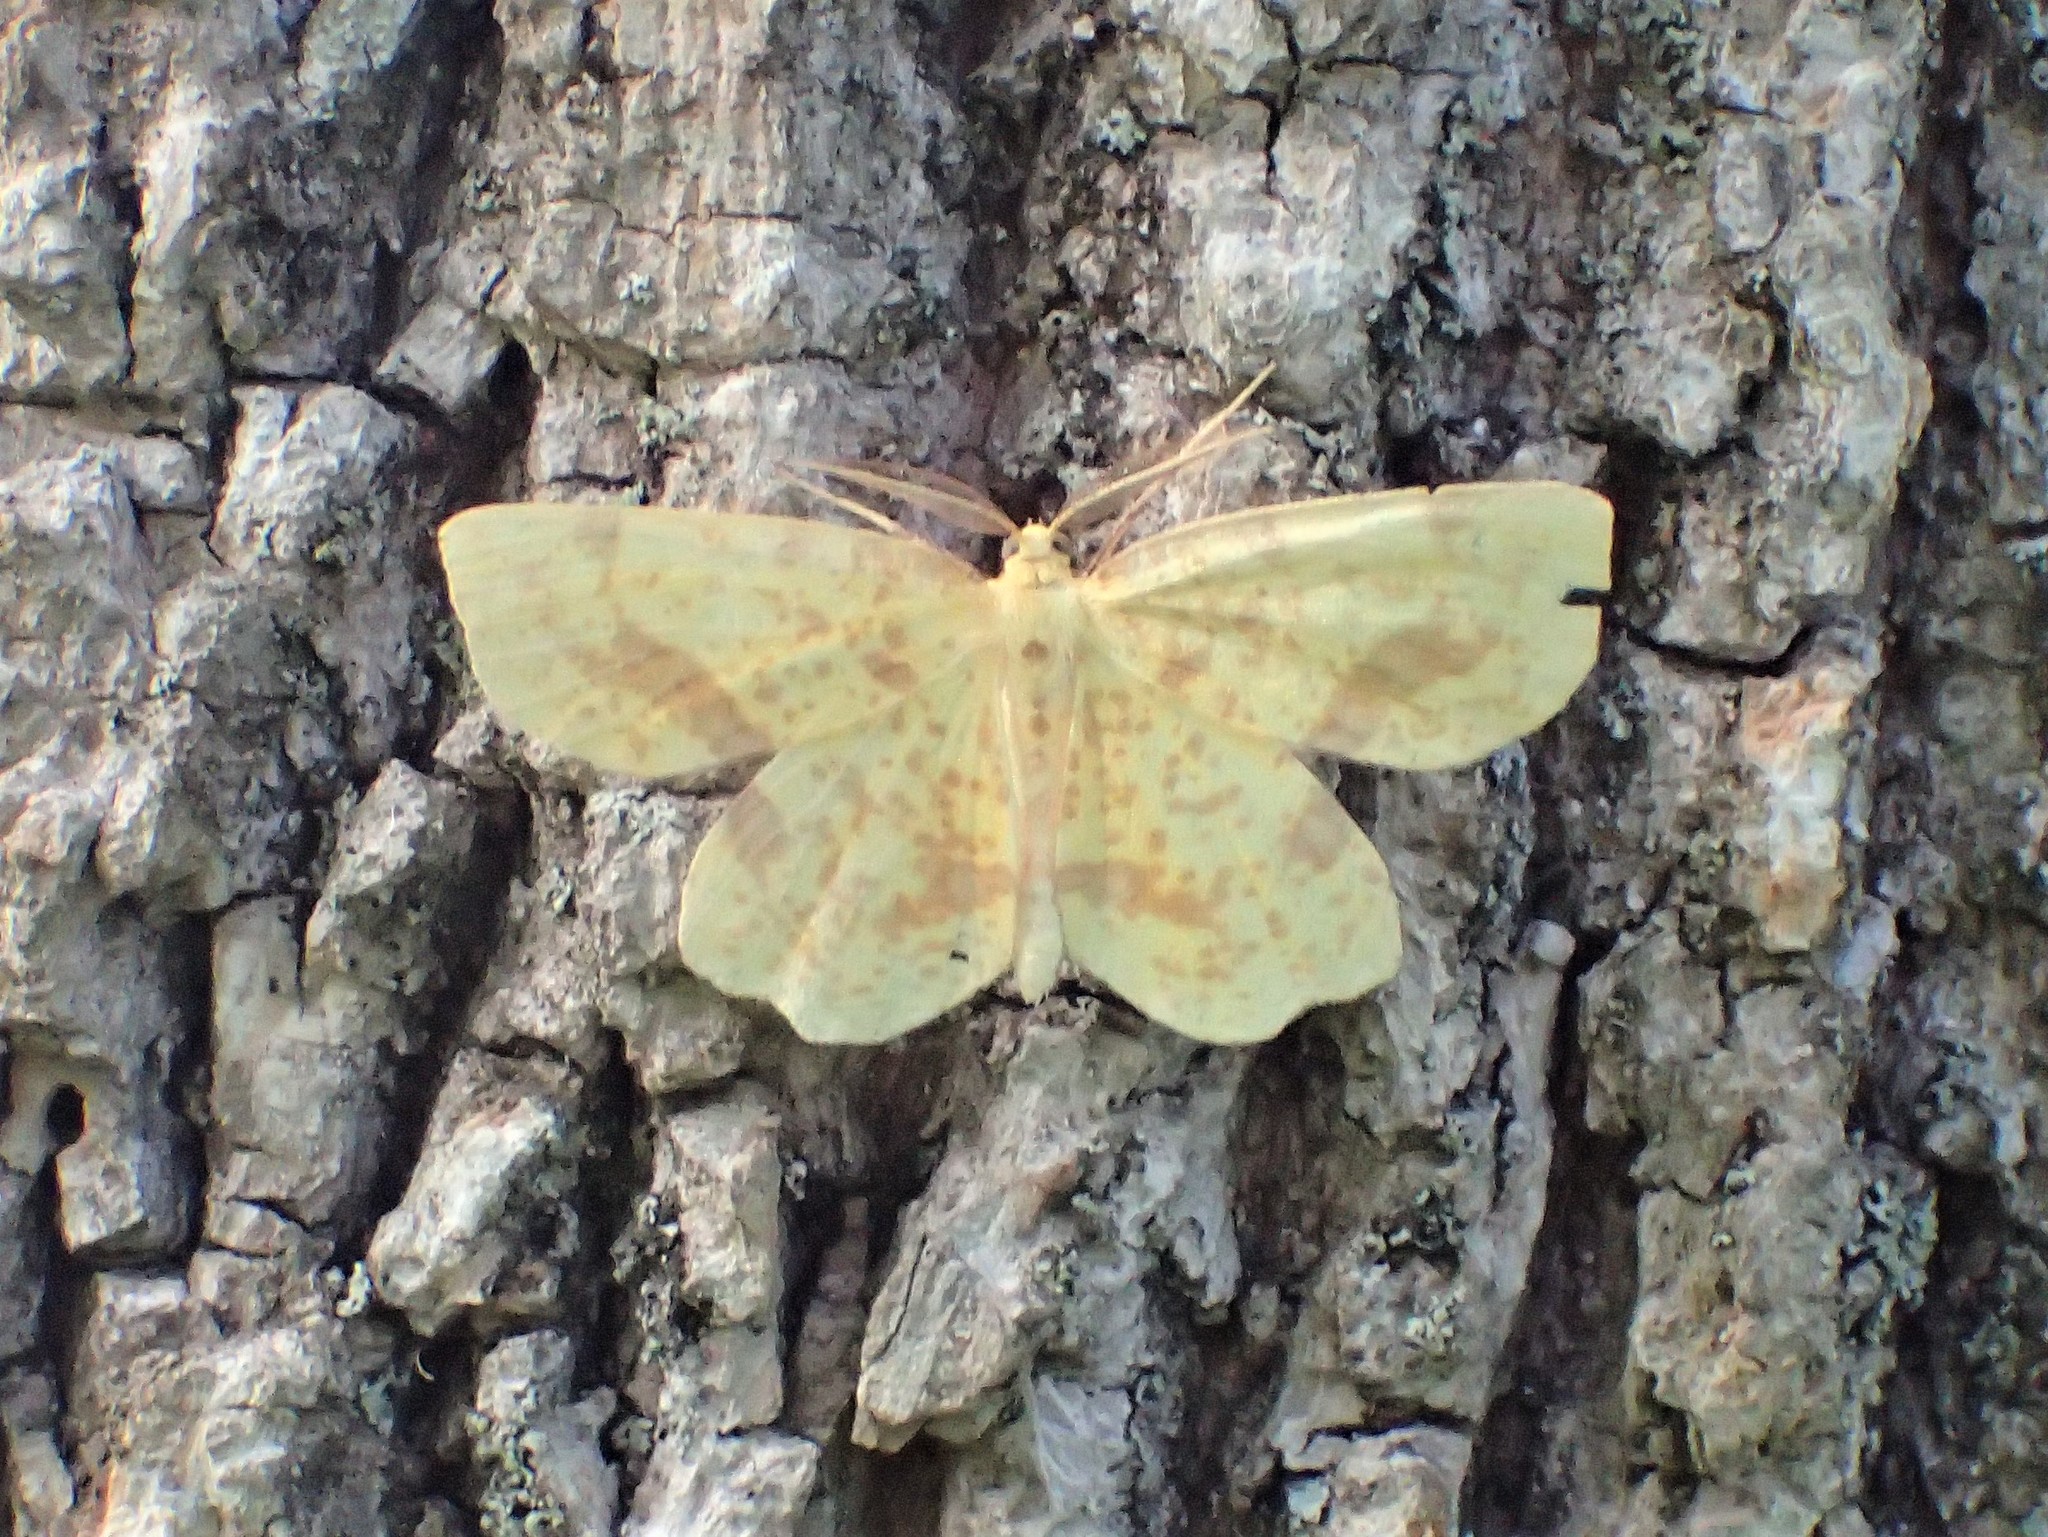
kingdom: Animalia
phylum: Arthropoda
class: Insecta
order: Lepidoptera
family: Geometridae
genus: Xanthotype
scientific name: Xanthotype
